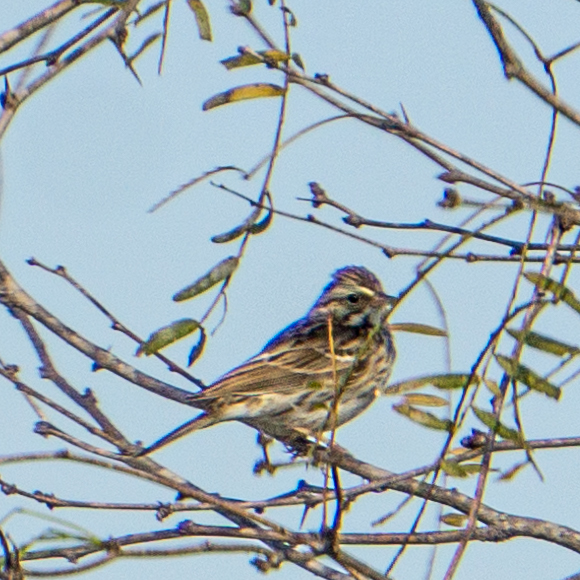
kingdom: Animalia
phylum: Chordata
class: Aves
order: Passeriformes
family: Passerellidae
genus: Passerculus
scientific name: Passerculus sandwichensis
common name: Savannah sparrow
